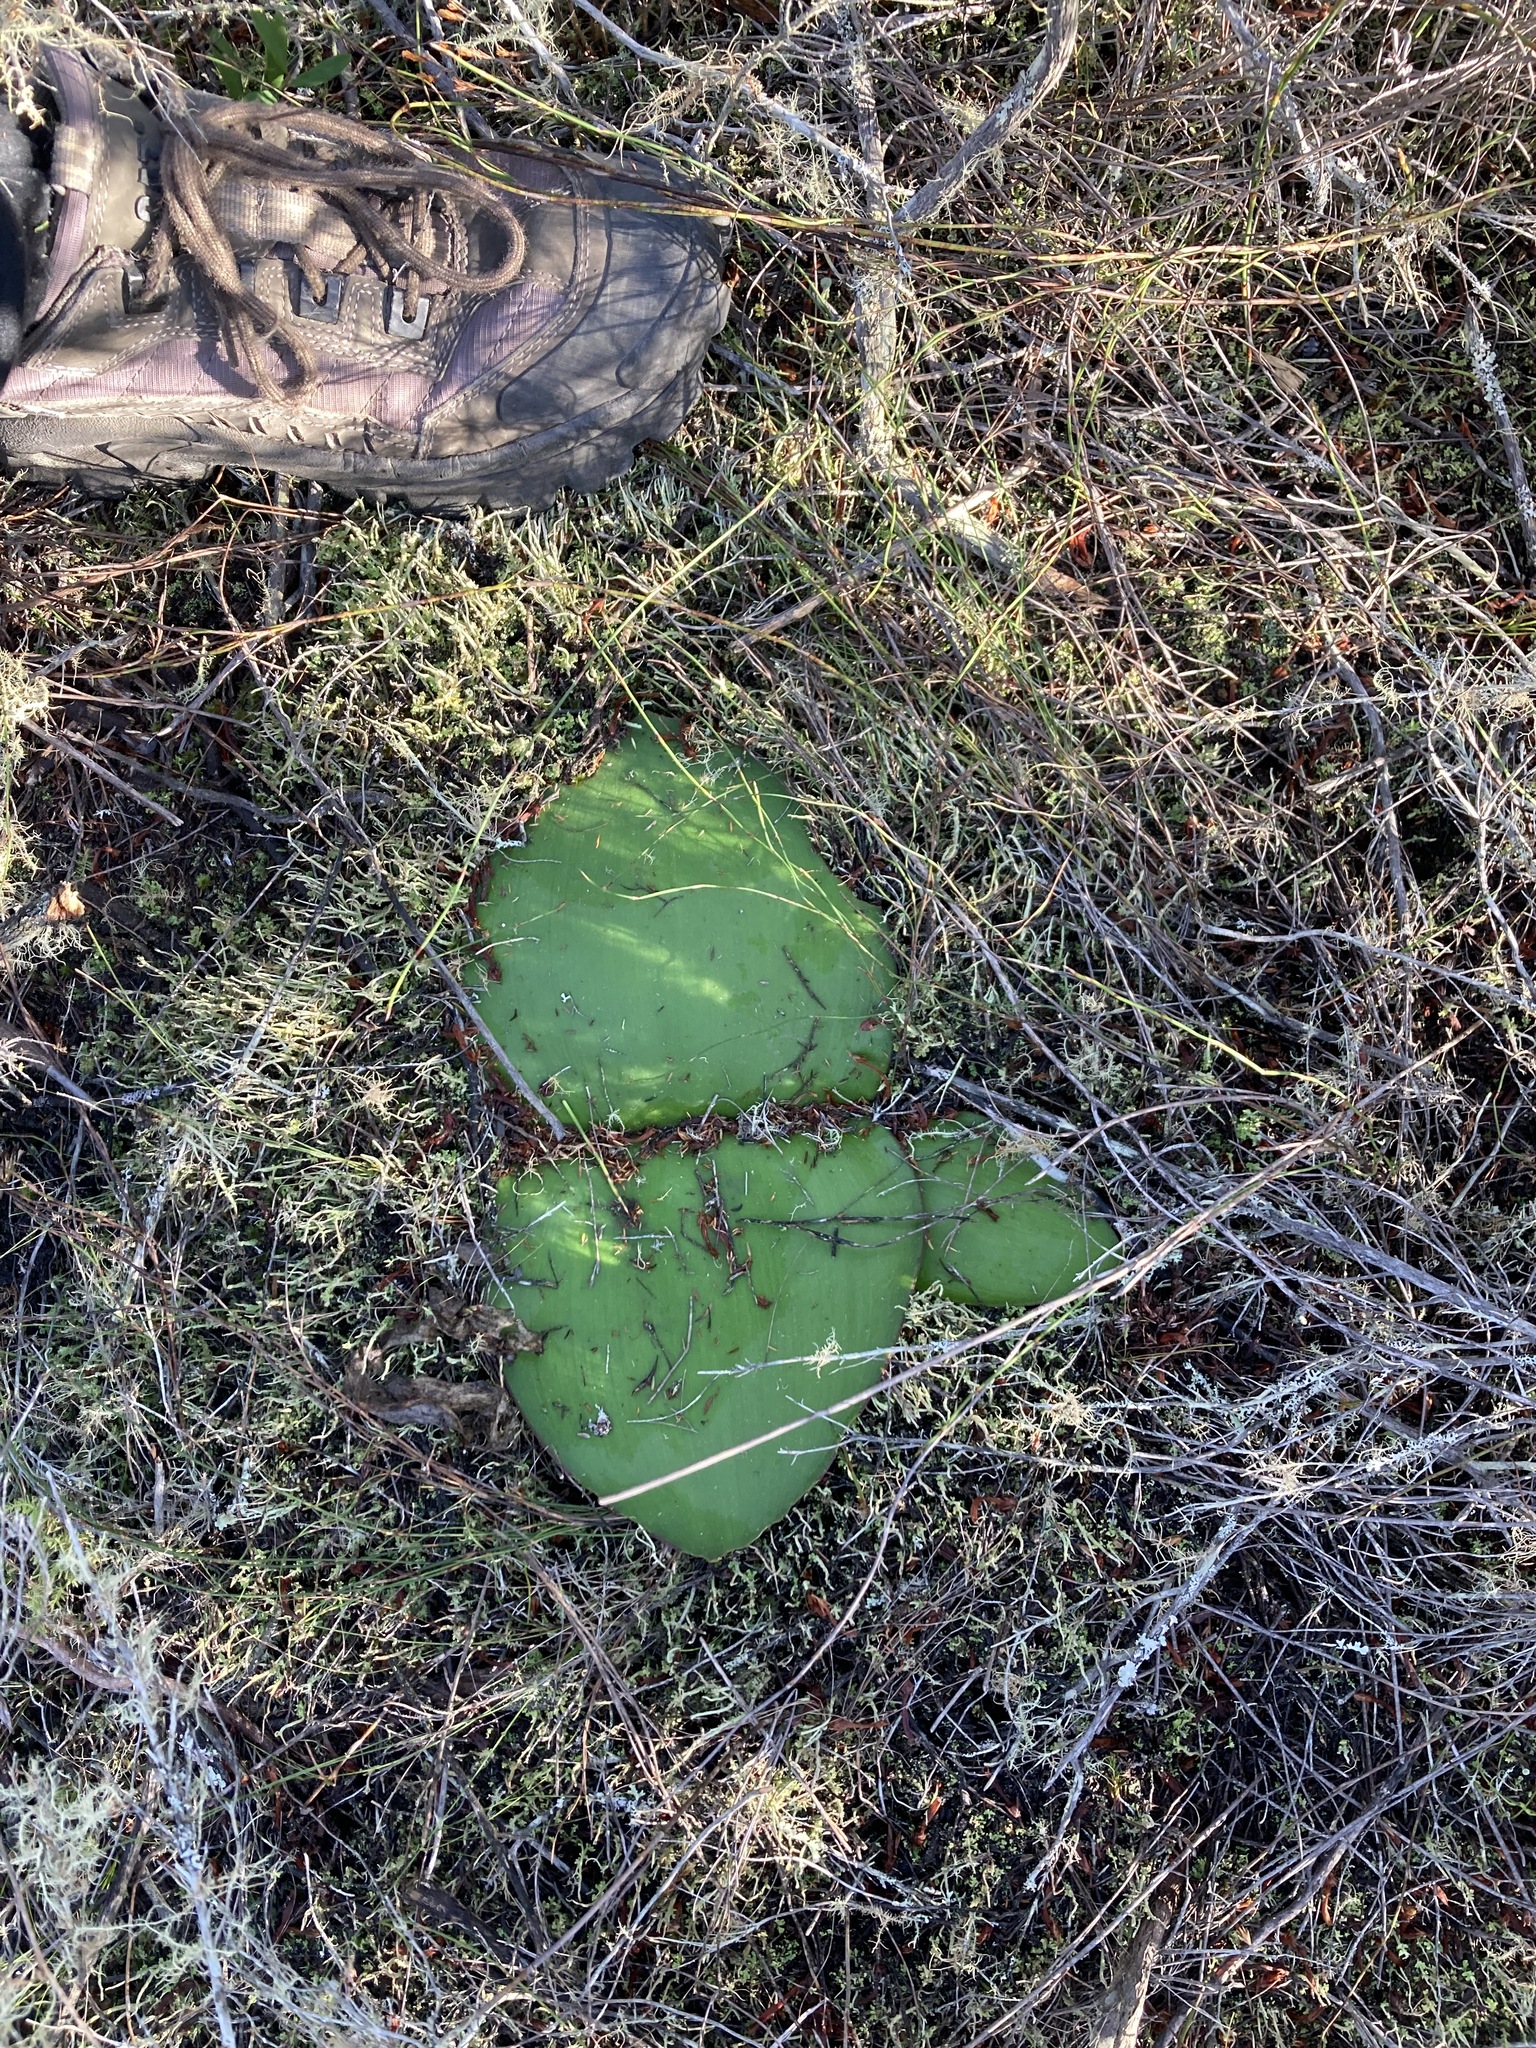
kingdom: Plantae
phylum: Tracheophyta
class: Liliopsida
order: Asparagales
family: Amaryllidaceae
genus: Haemanthus
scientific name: Haemanthus sanguineus
